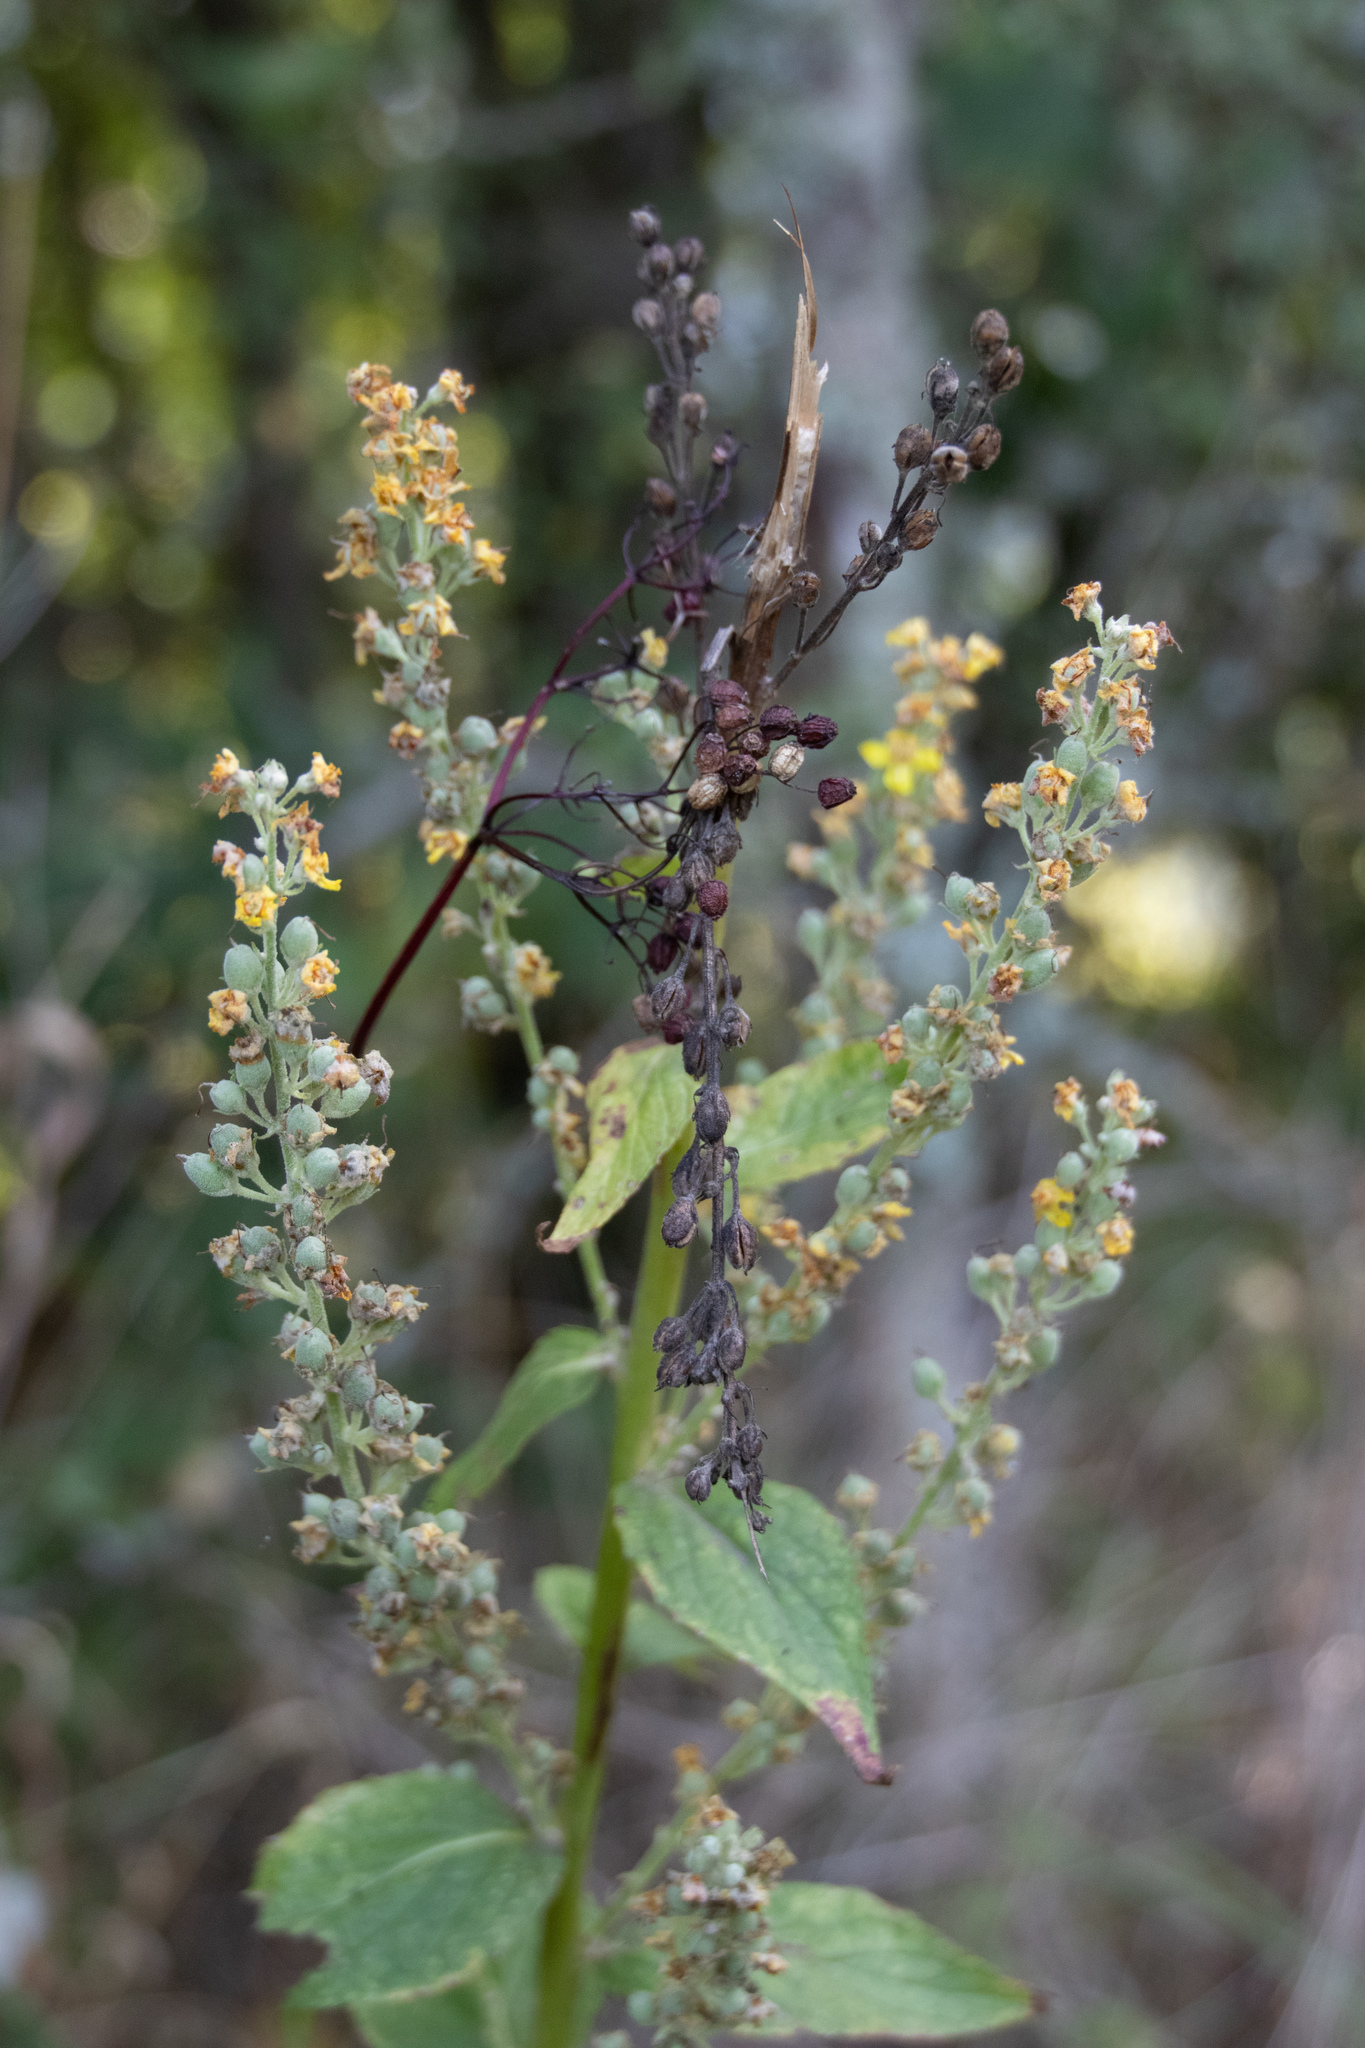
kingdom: Plantae
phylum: Tracheophyta
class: Magnoliopsida
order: Lamiales
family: Scrophulariaceae
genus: Verbascum
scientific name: Verbascum lychnitis
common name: White mullein
